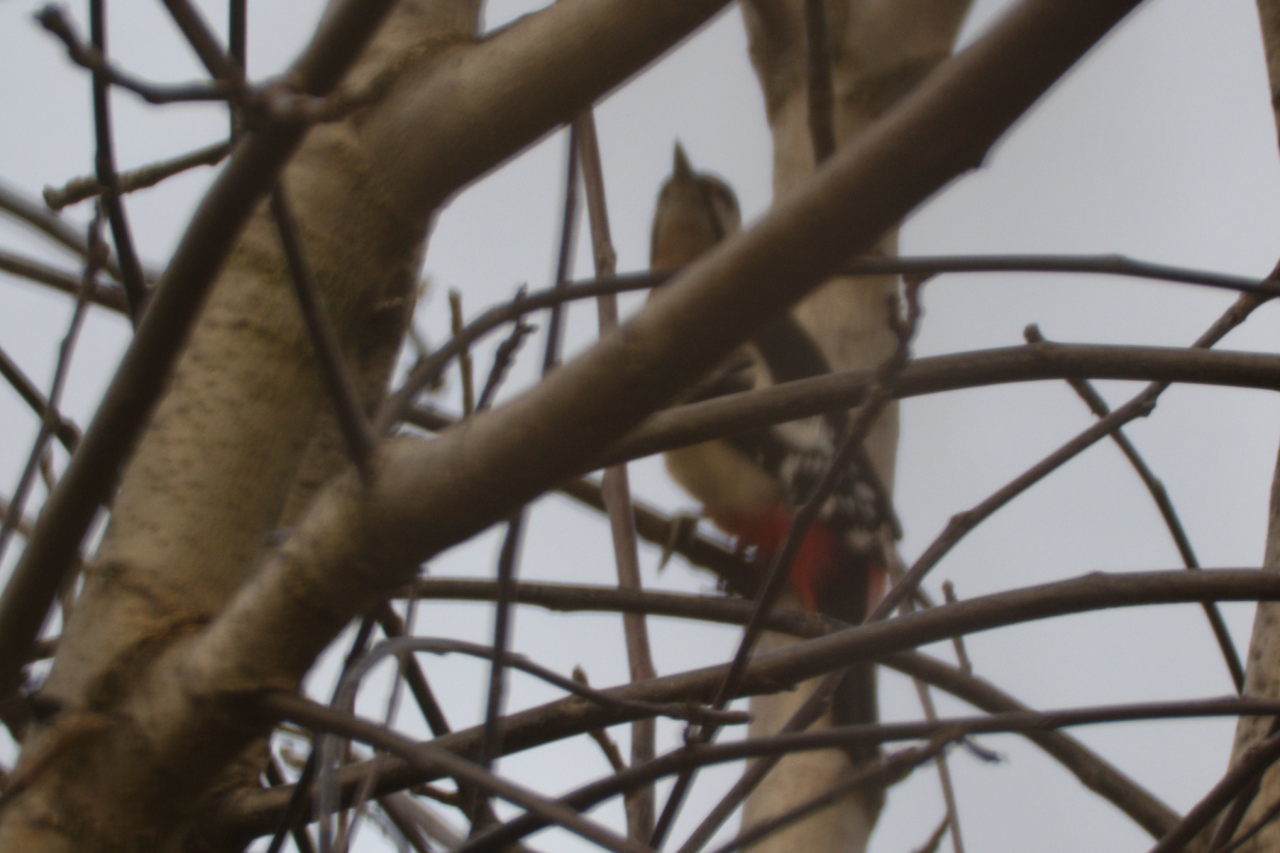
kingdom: Animalia
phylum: Chordata
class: Aves
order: Piciformes
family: Picidae
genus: Dendrocopos
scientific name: Dendrocopos major
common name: Great spotted woodpecker
